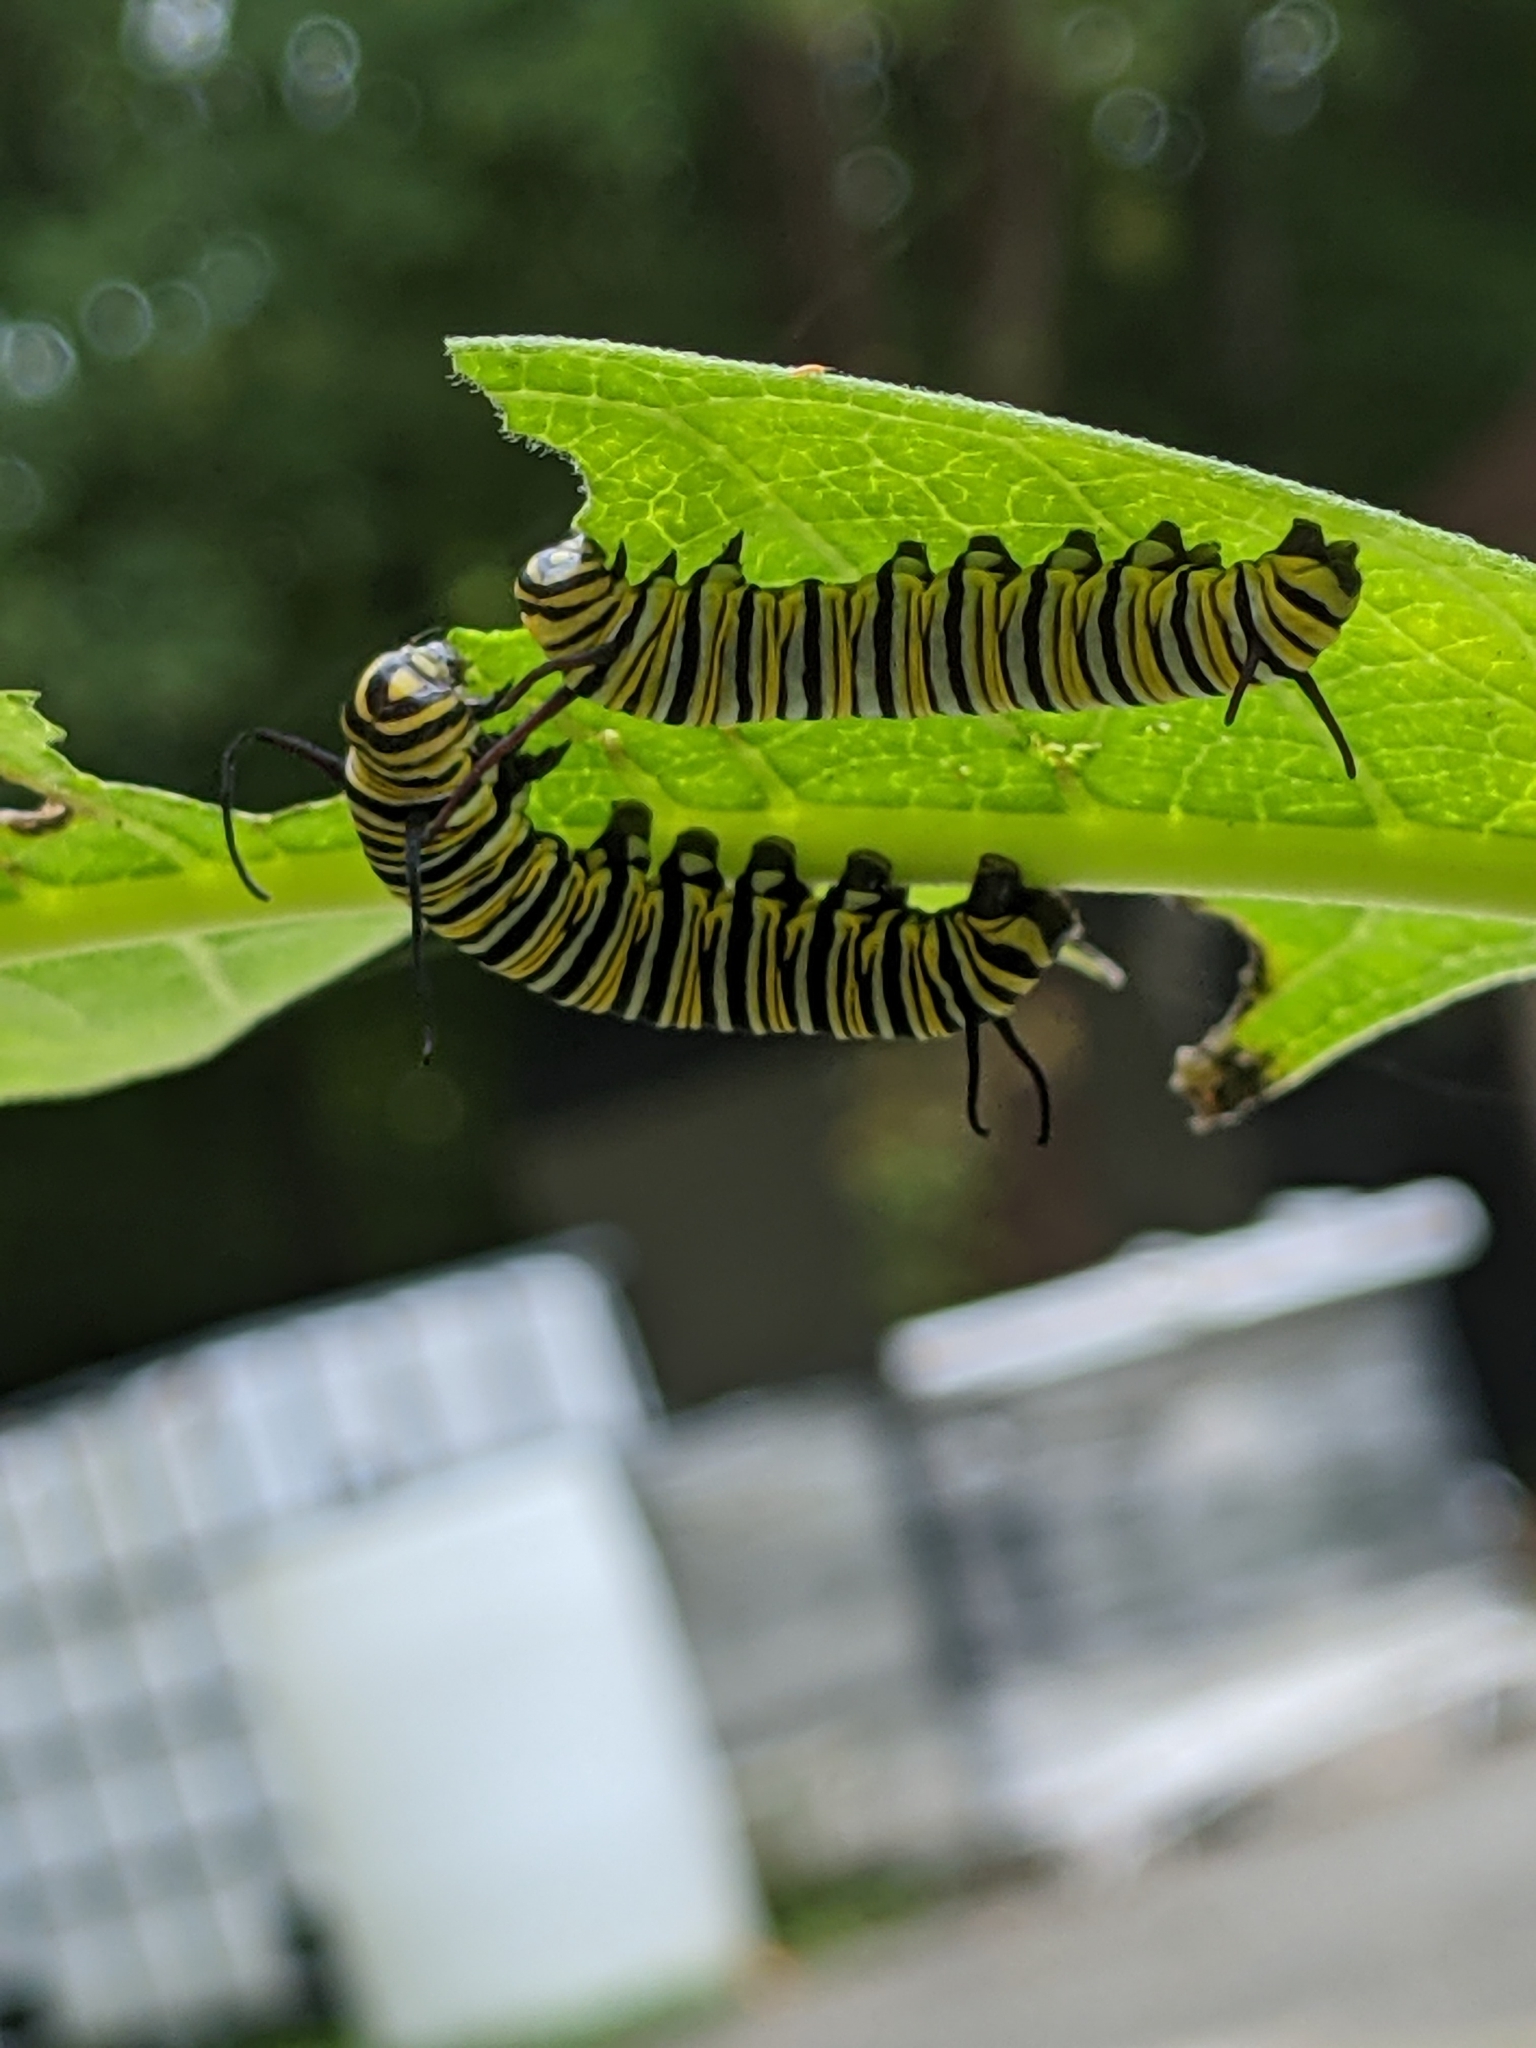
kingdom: Animalia
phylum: Arthropoda
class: Insecta
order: Lepidoptera
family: Nymphalidae
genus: Danaus
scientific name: Danaus plexippus
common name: Monarch
